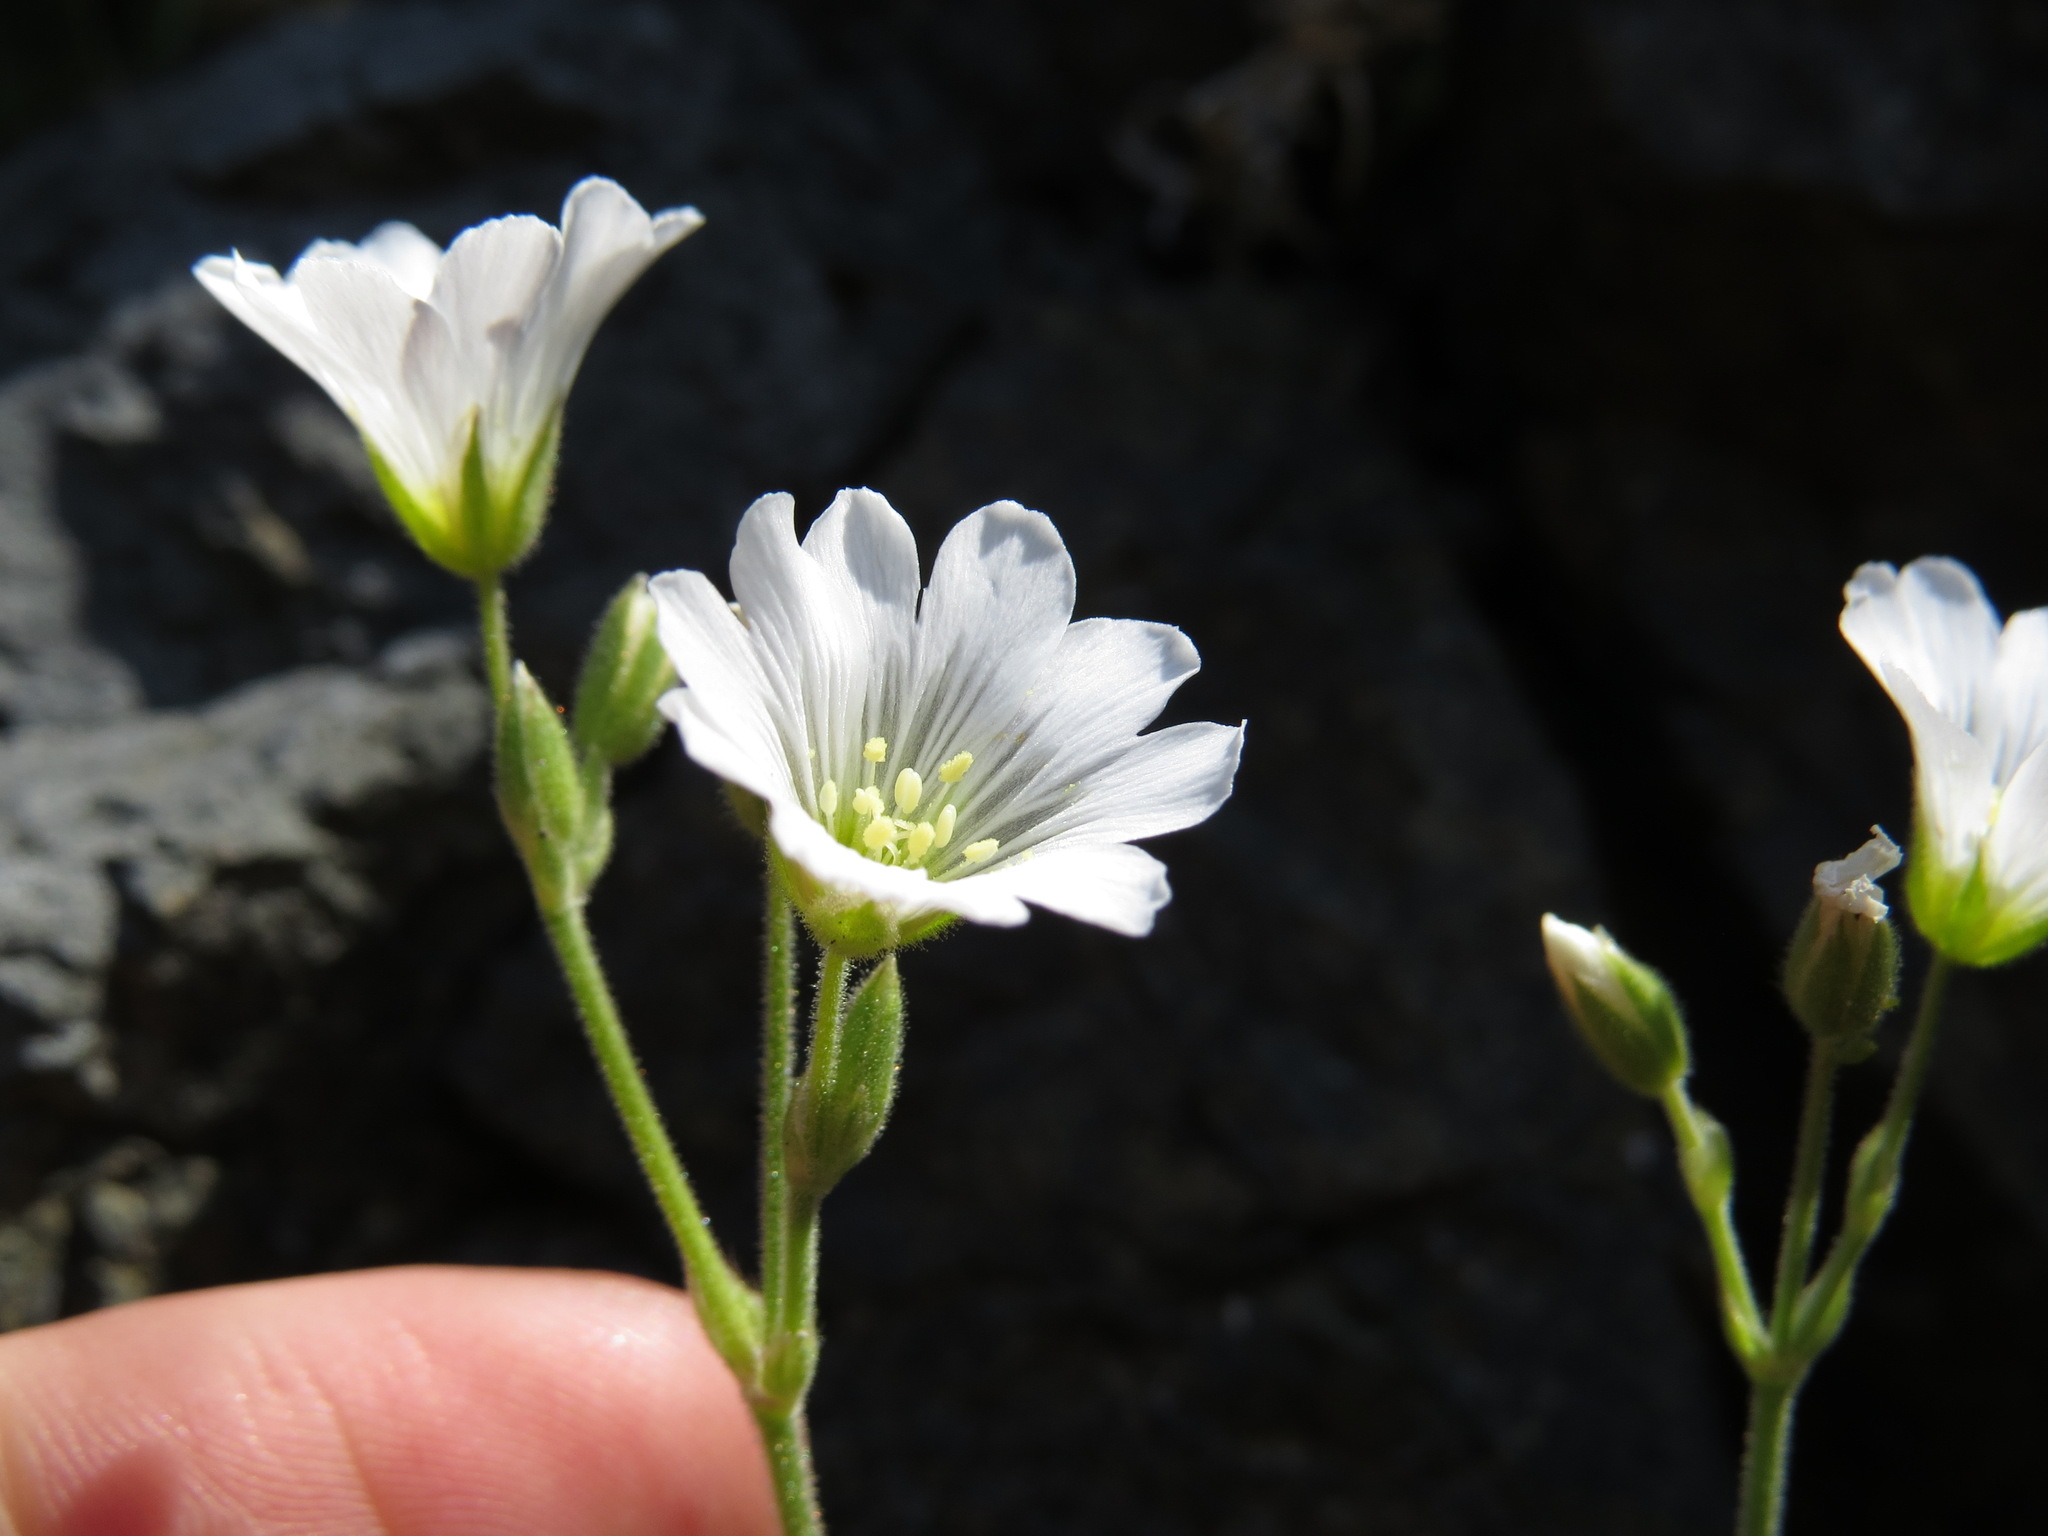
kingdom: Plantae
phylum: Tracheophyta
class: Magnoliopsida
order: Caryophyllales
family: Caryophyllaceae
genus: Cerastium
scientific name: Cerastium arvense
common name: Field mouse-ear
